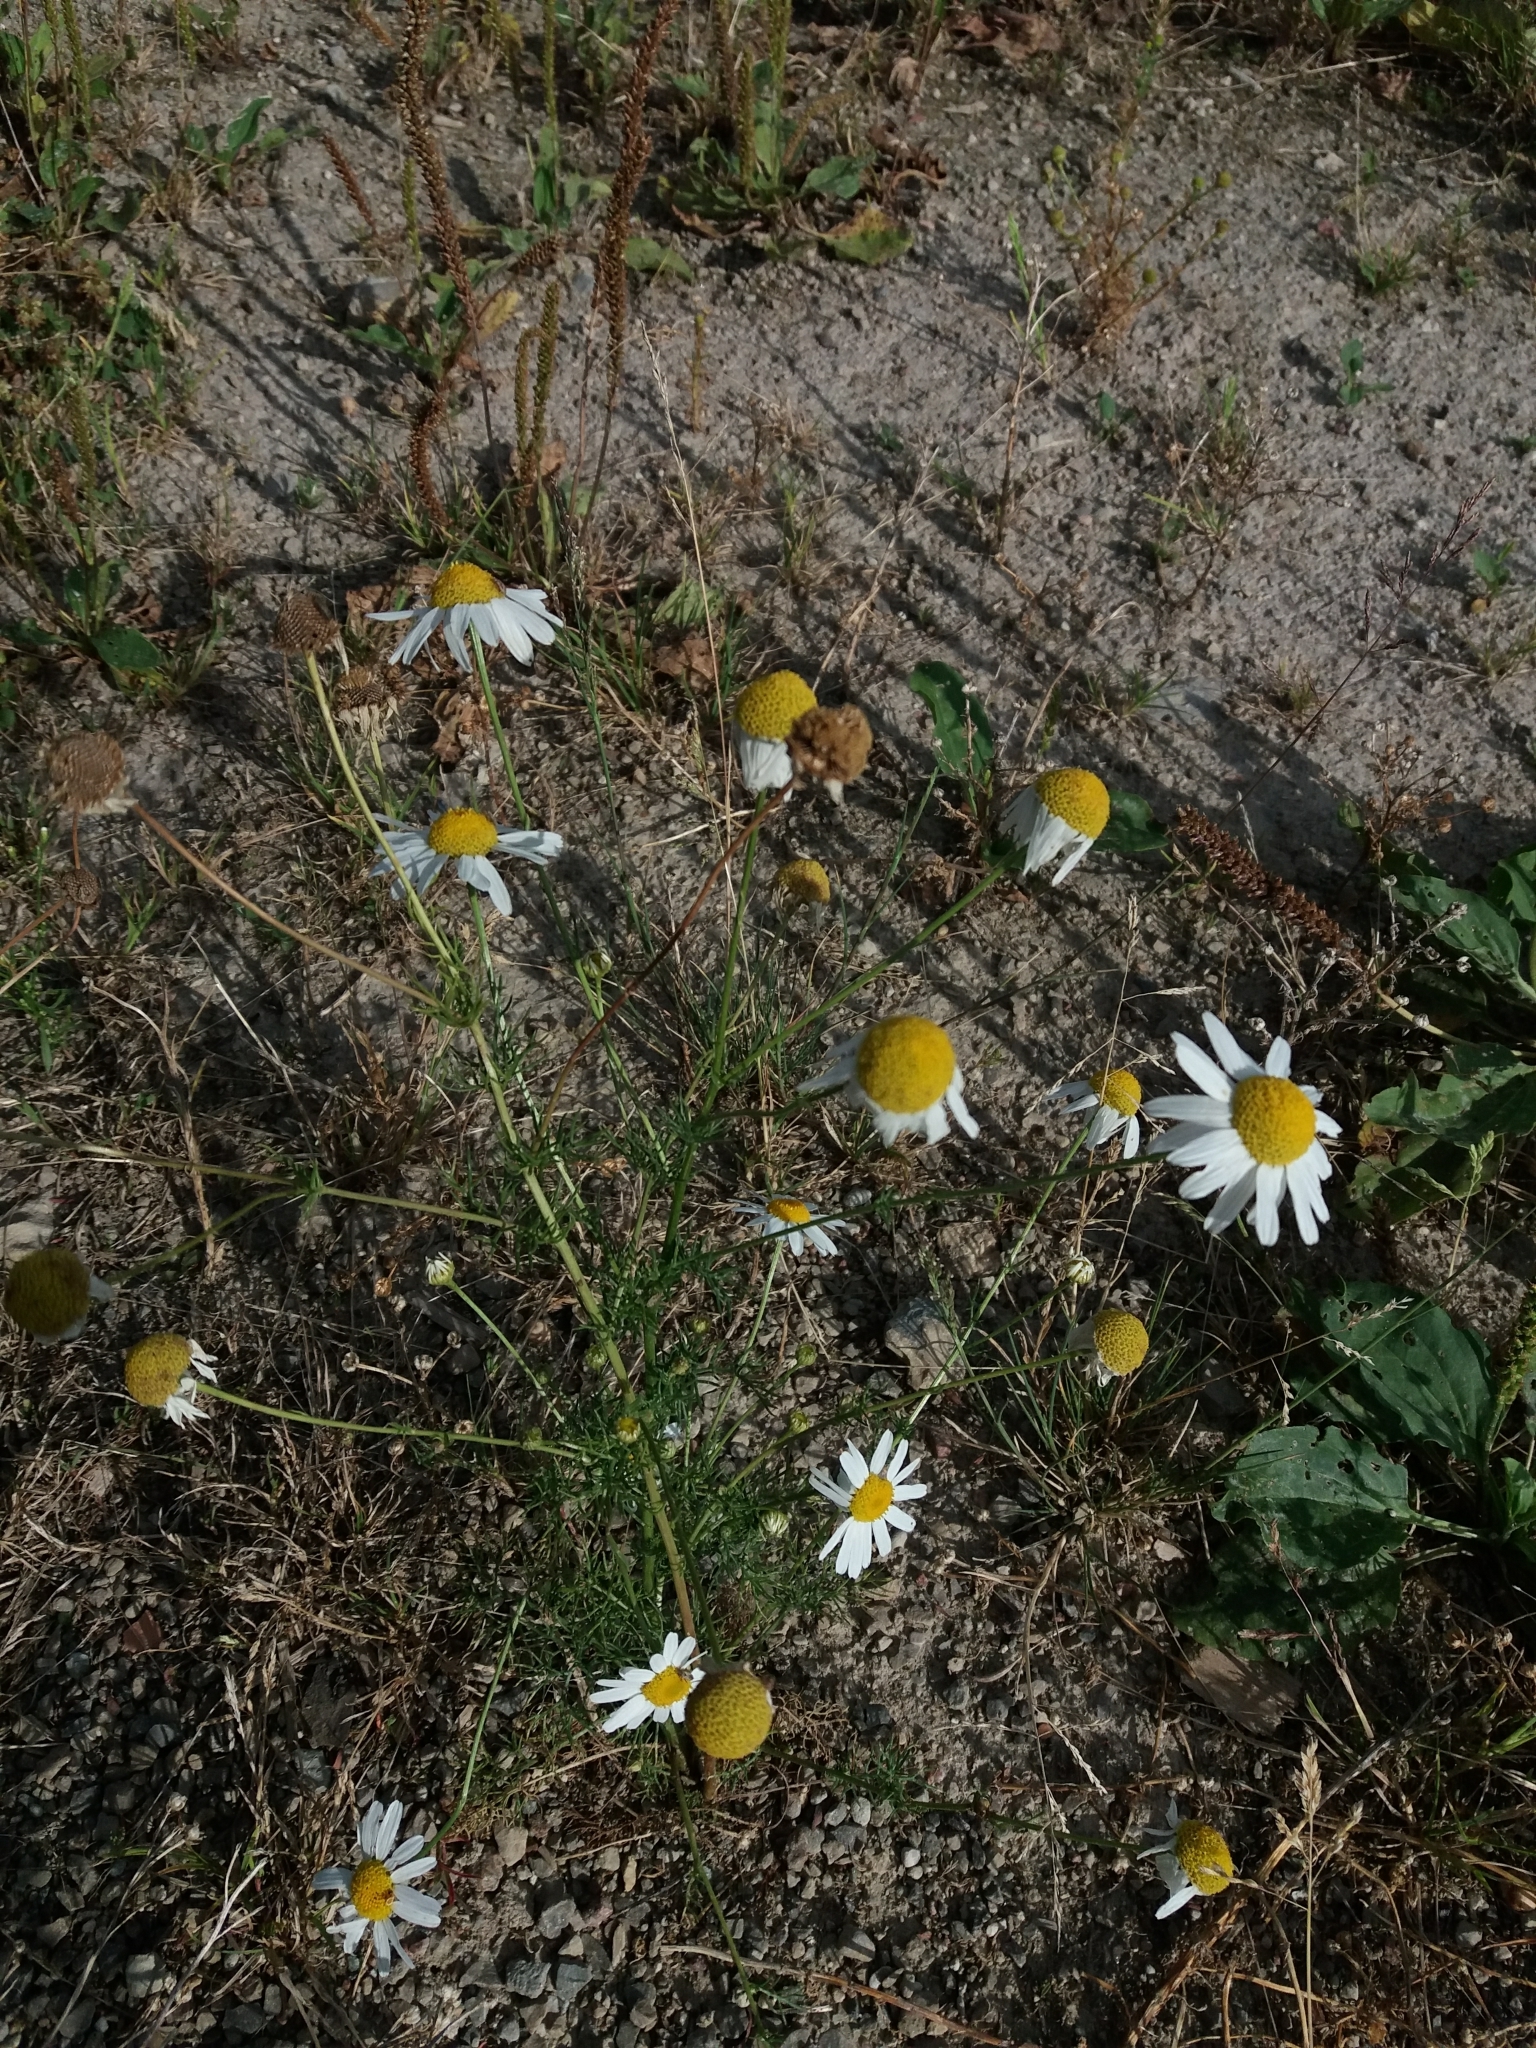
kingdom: Plantae
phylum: Tracheophyta
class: Magnoliopsida
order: Asterales
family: Asteraceae
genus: Tripleurospermum
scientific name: Tripleurospermum inodorum
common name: Scentless mayweed
